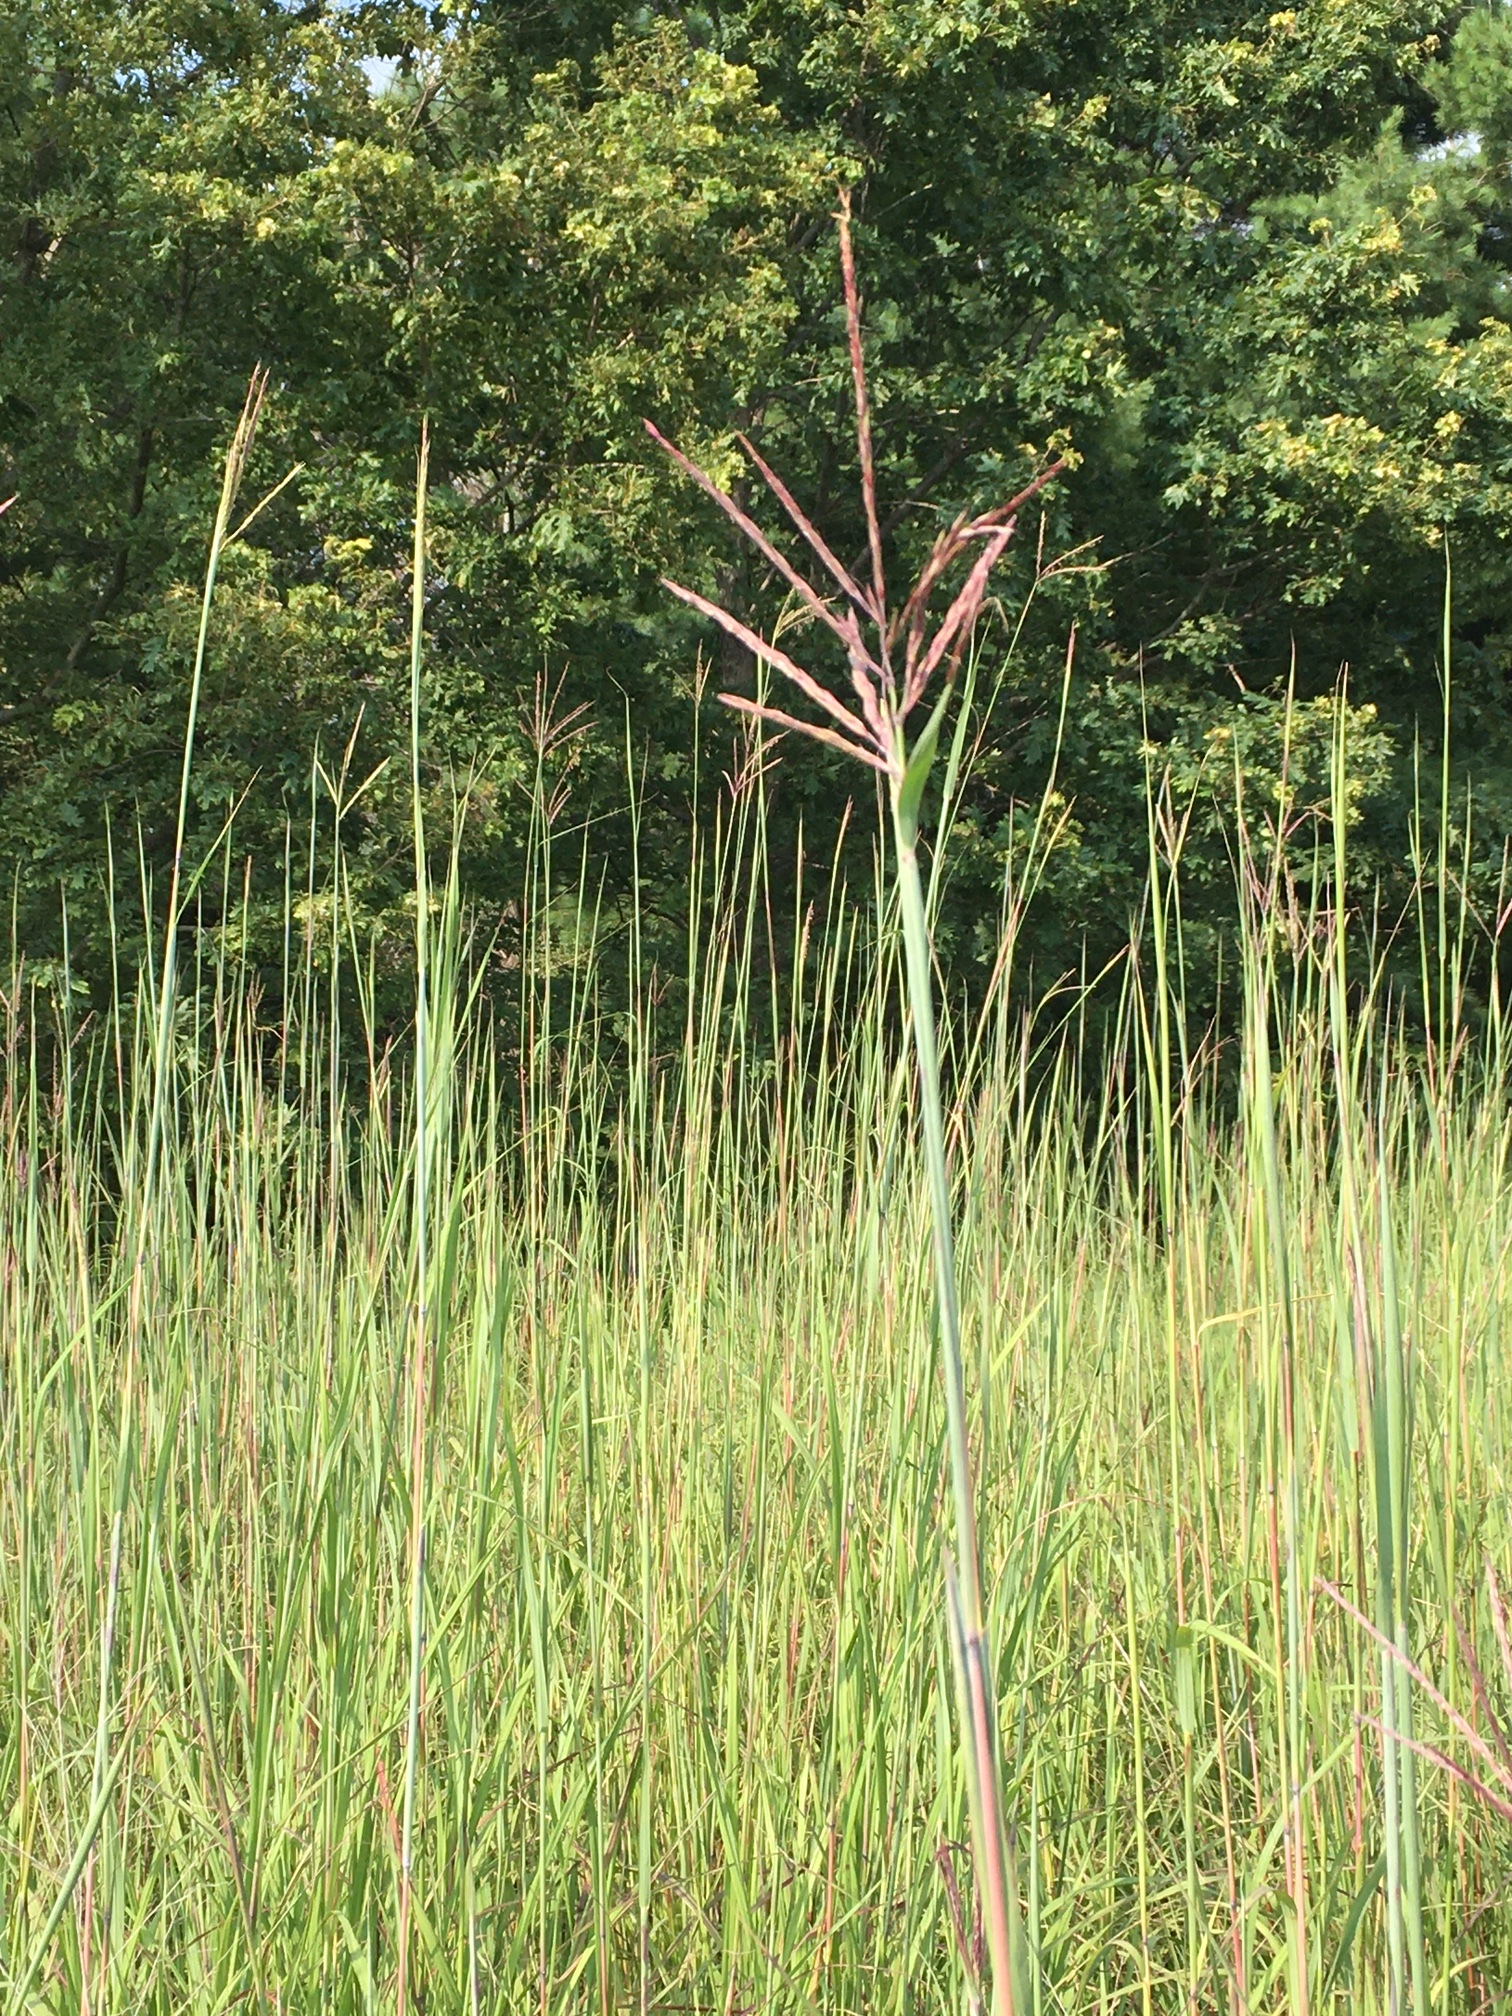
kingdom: Plantae
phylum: Tracheophyta
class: Liliopsida
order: Poales
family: Poaceae
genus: Andropogon
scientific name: Andropogon gerardi
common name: Big bluestem
